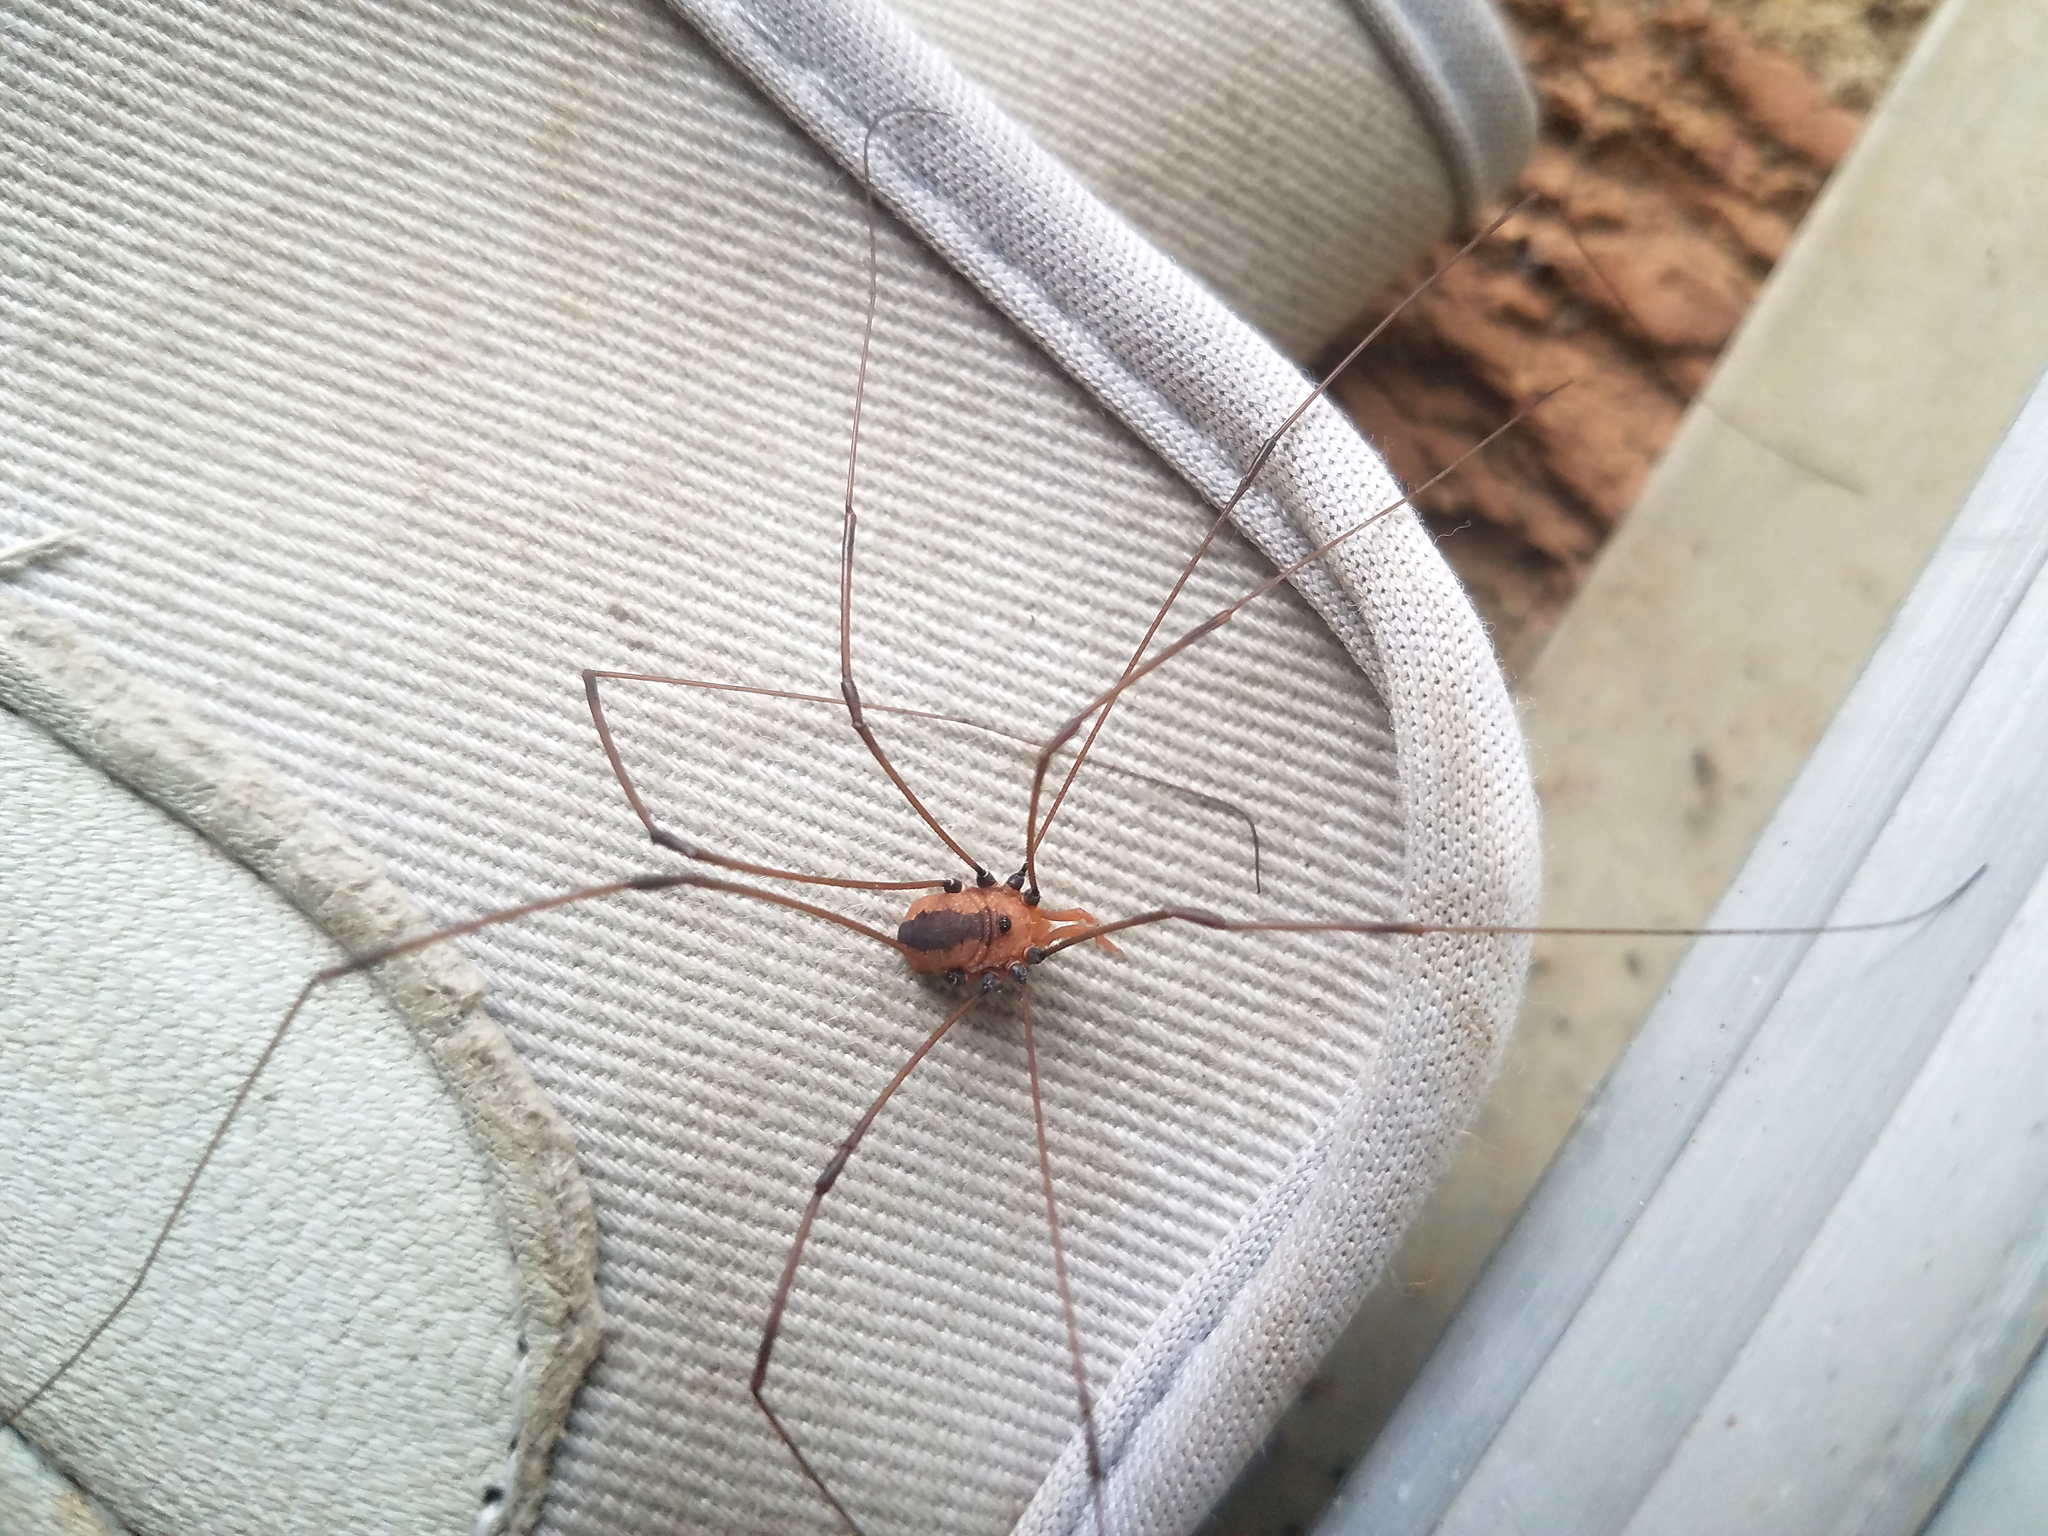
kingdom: Animalia
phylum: Arthropoda
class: Arachnida
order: Opiliones
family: Sclerosomatidae
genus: Leiobunum
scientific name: Leiobunum vittatum
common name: Eastern harvestman
